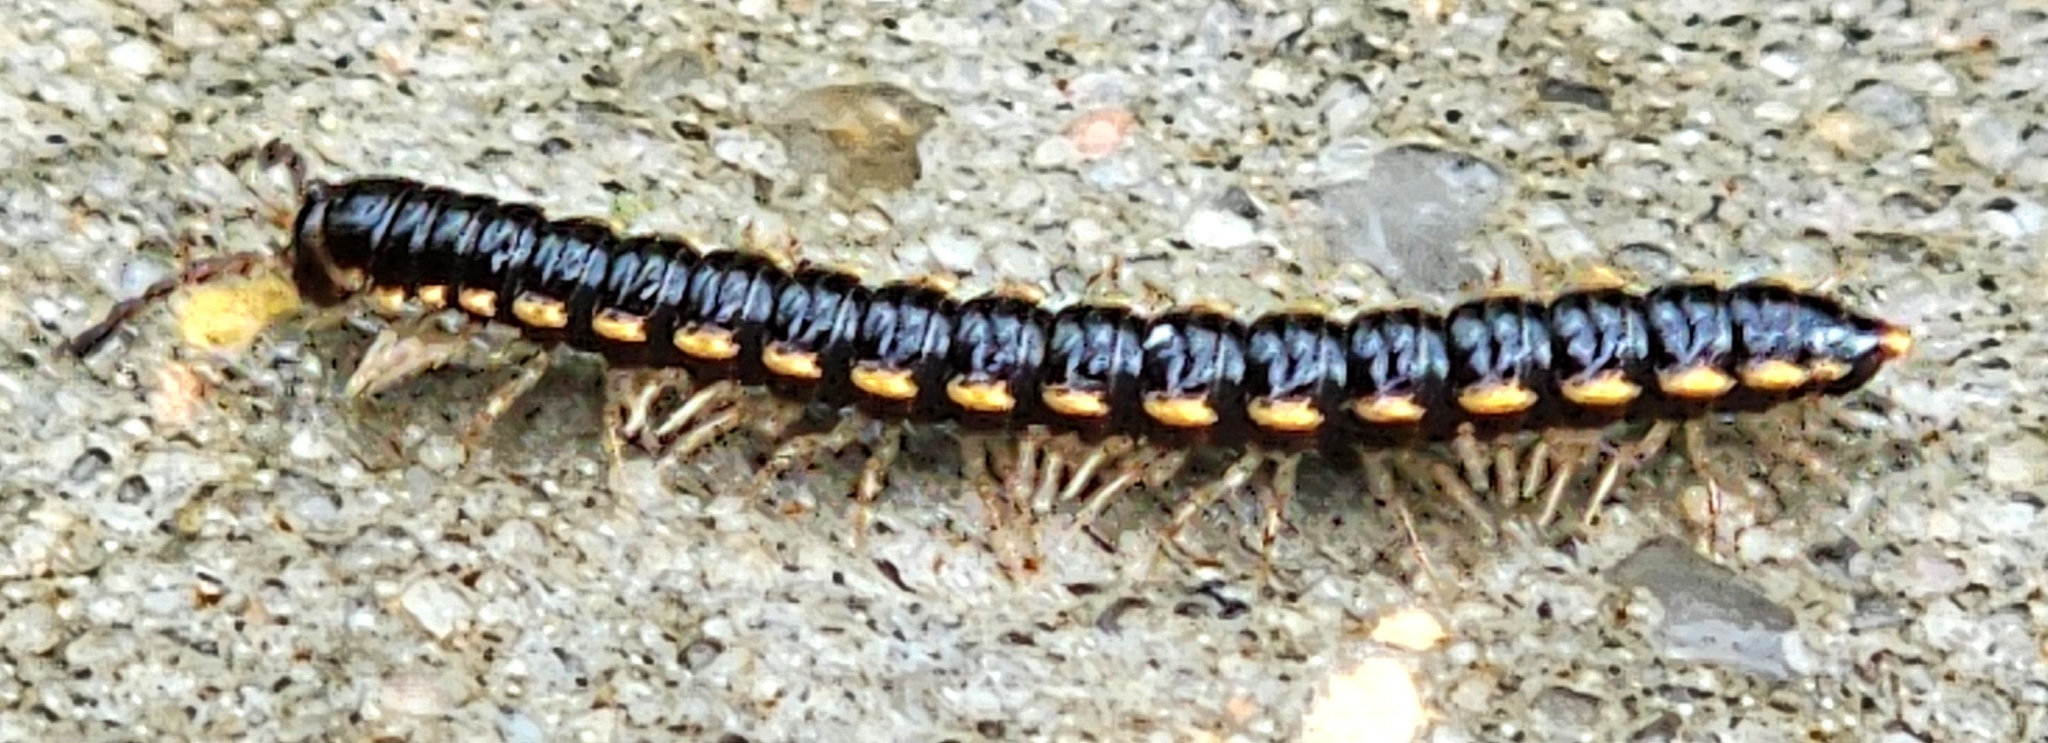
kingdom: Animalia
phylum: Arthropoda
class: Diplopoda
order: Polydesmida
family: Paradoxosomatidae
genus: Orthomorpha
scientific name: Orthomorpha coarctata
